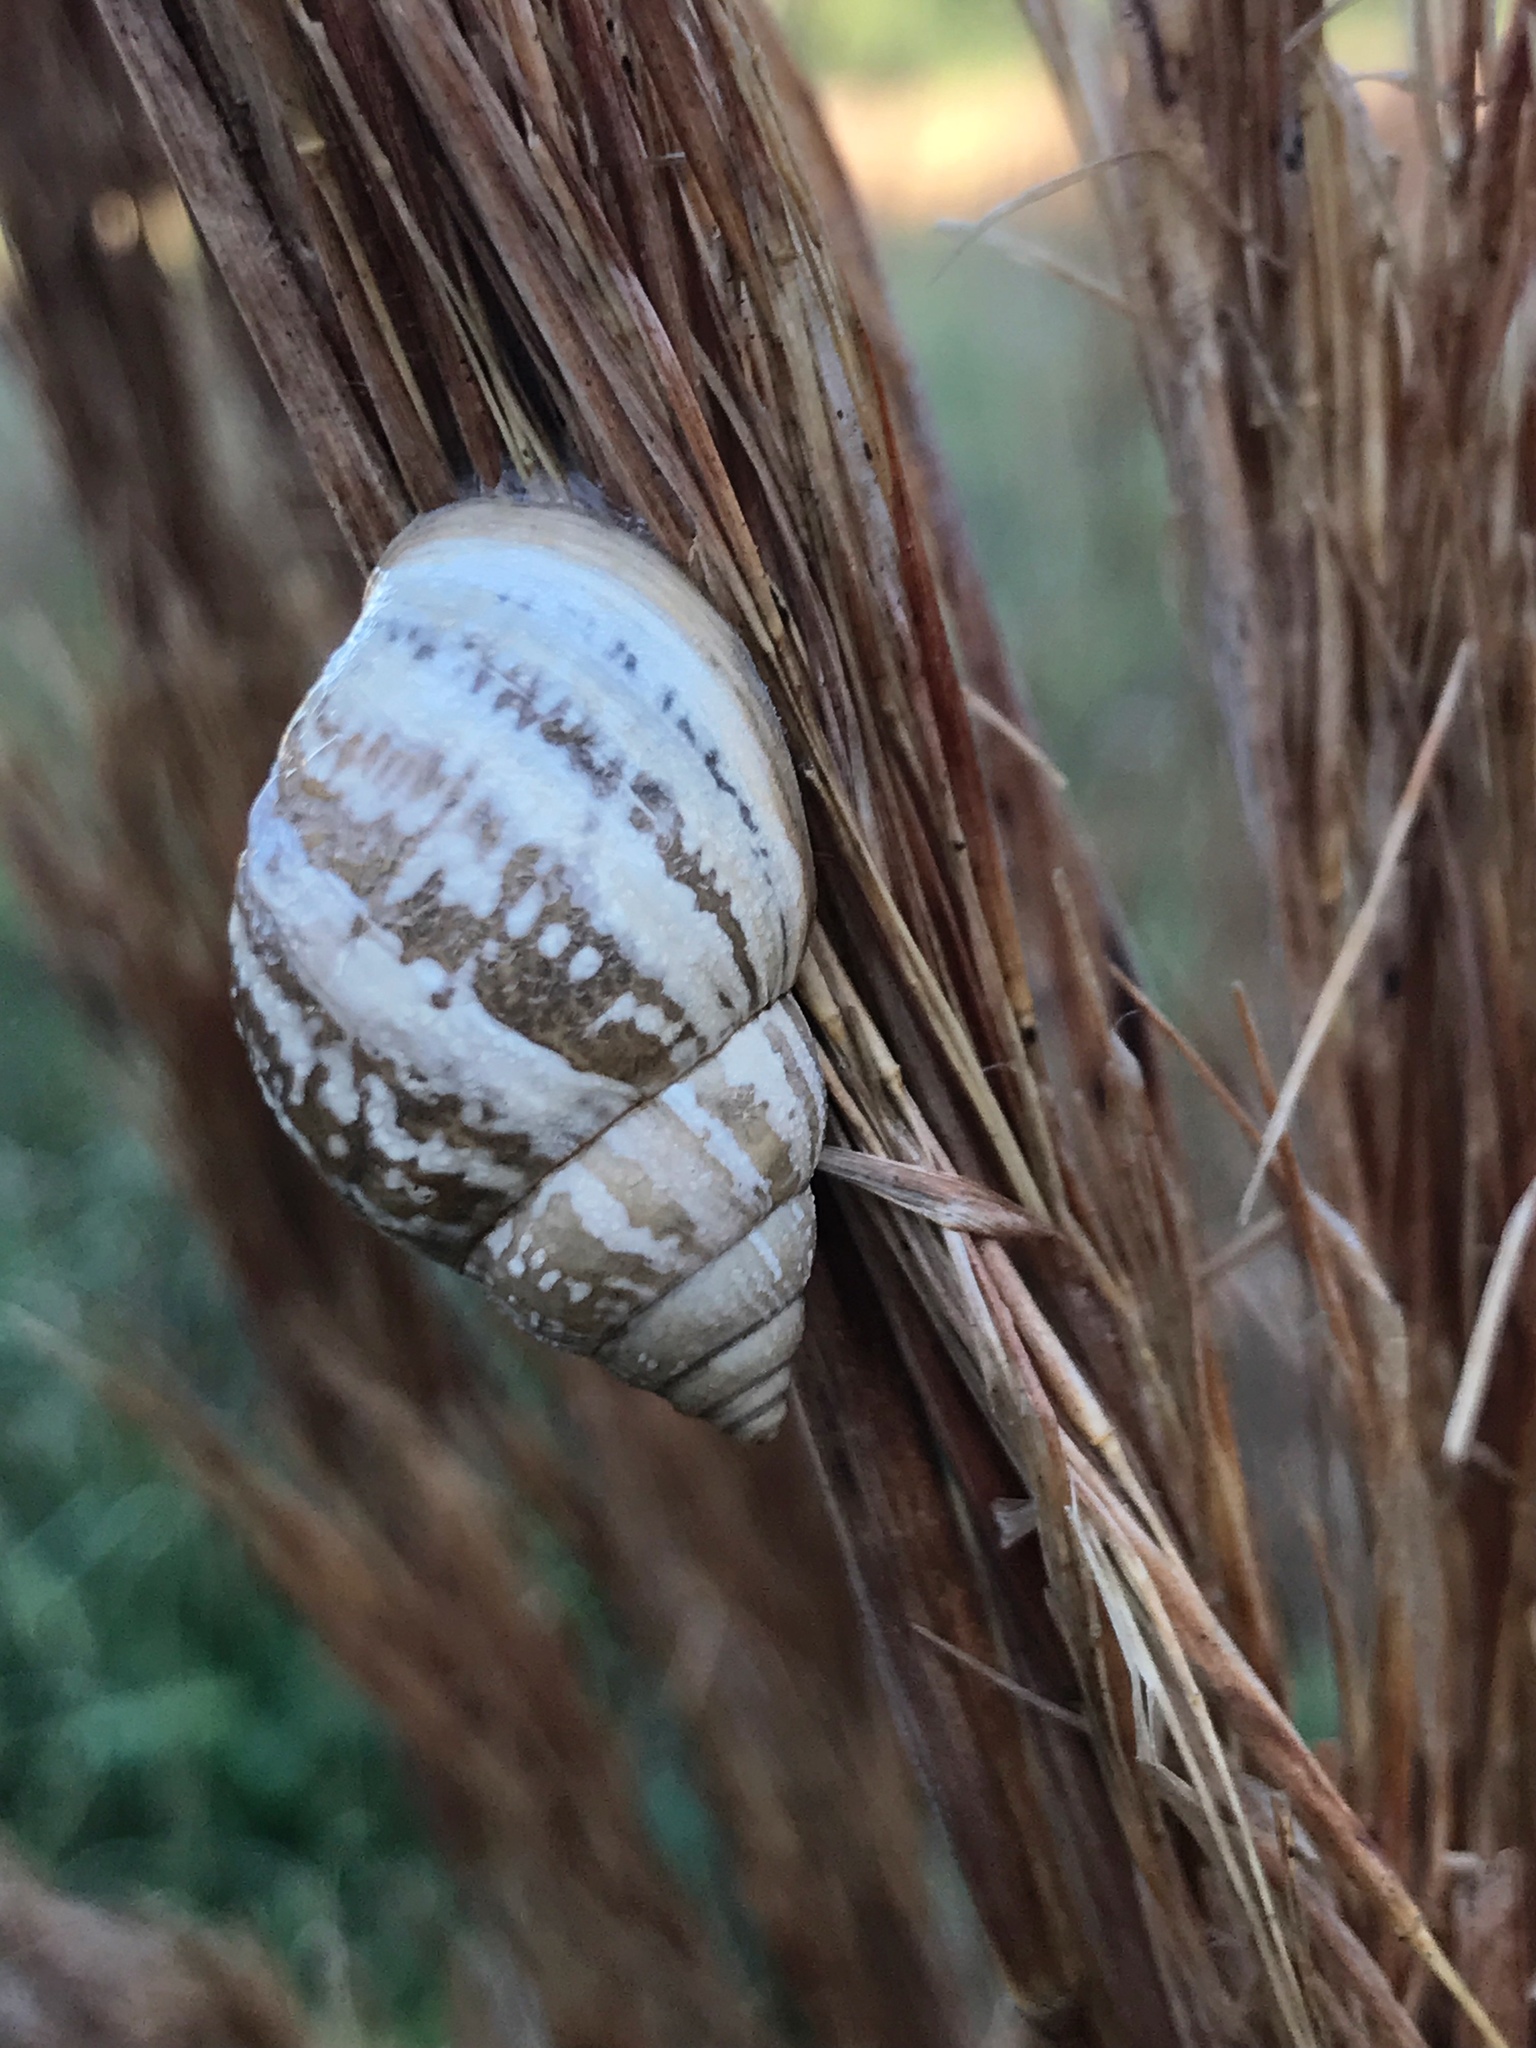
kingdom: Animalia
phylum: Mollusca
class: Gastropoda
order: Stylommatophora
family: Bulimulidae
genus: Rabdotus
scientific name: Rabdotus dealbatus
